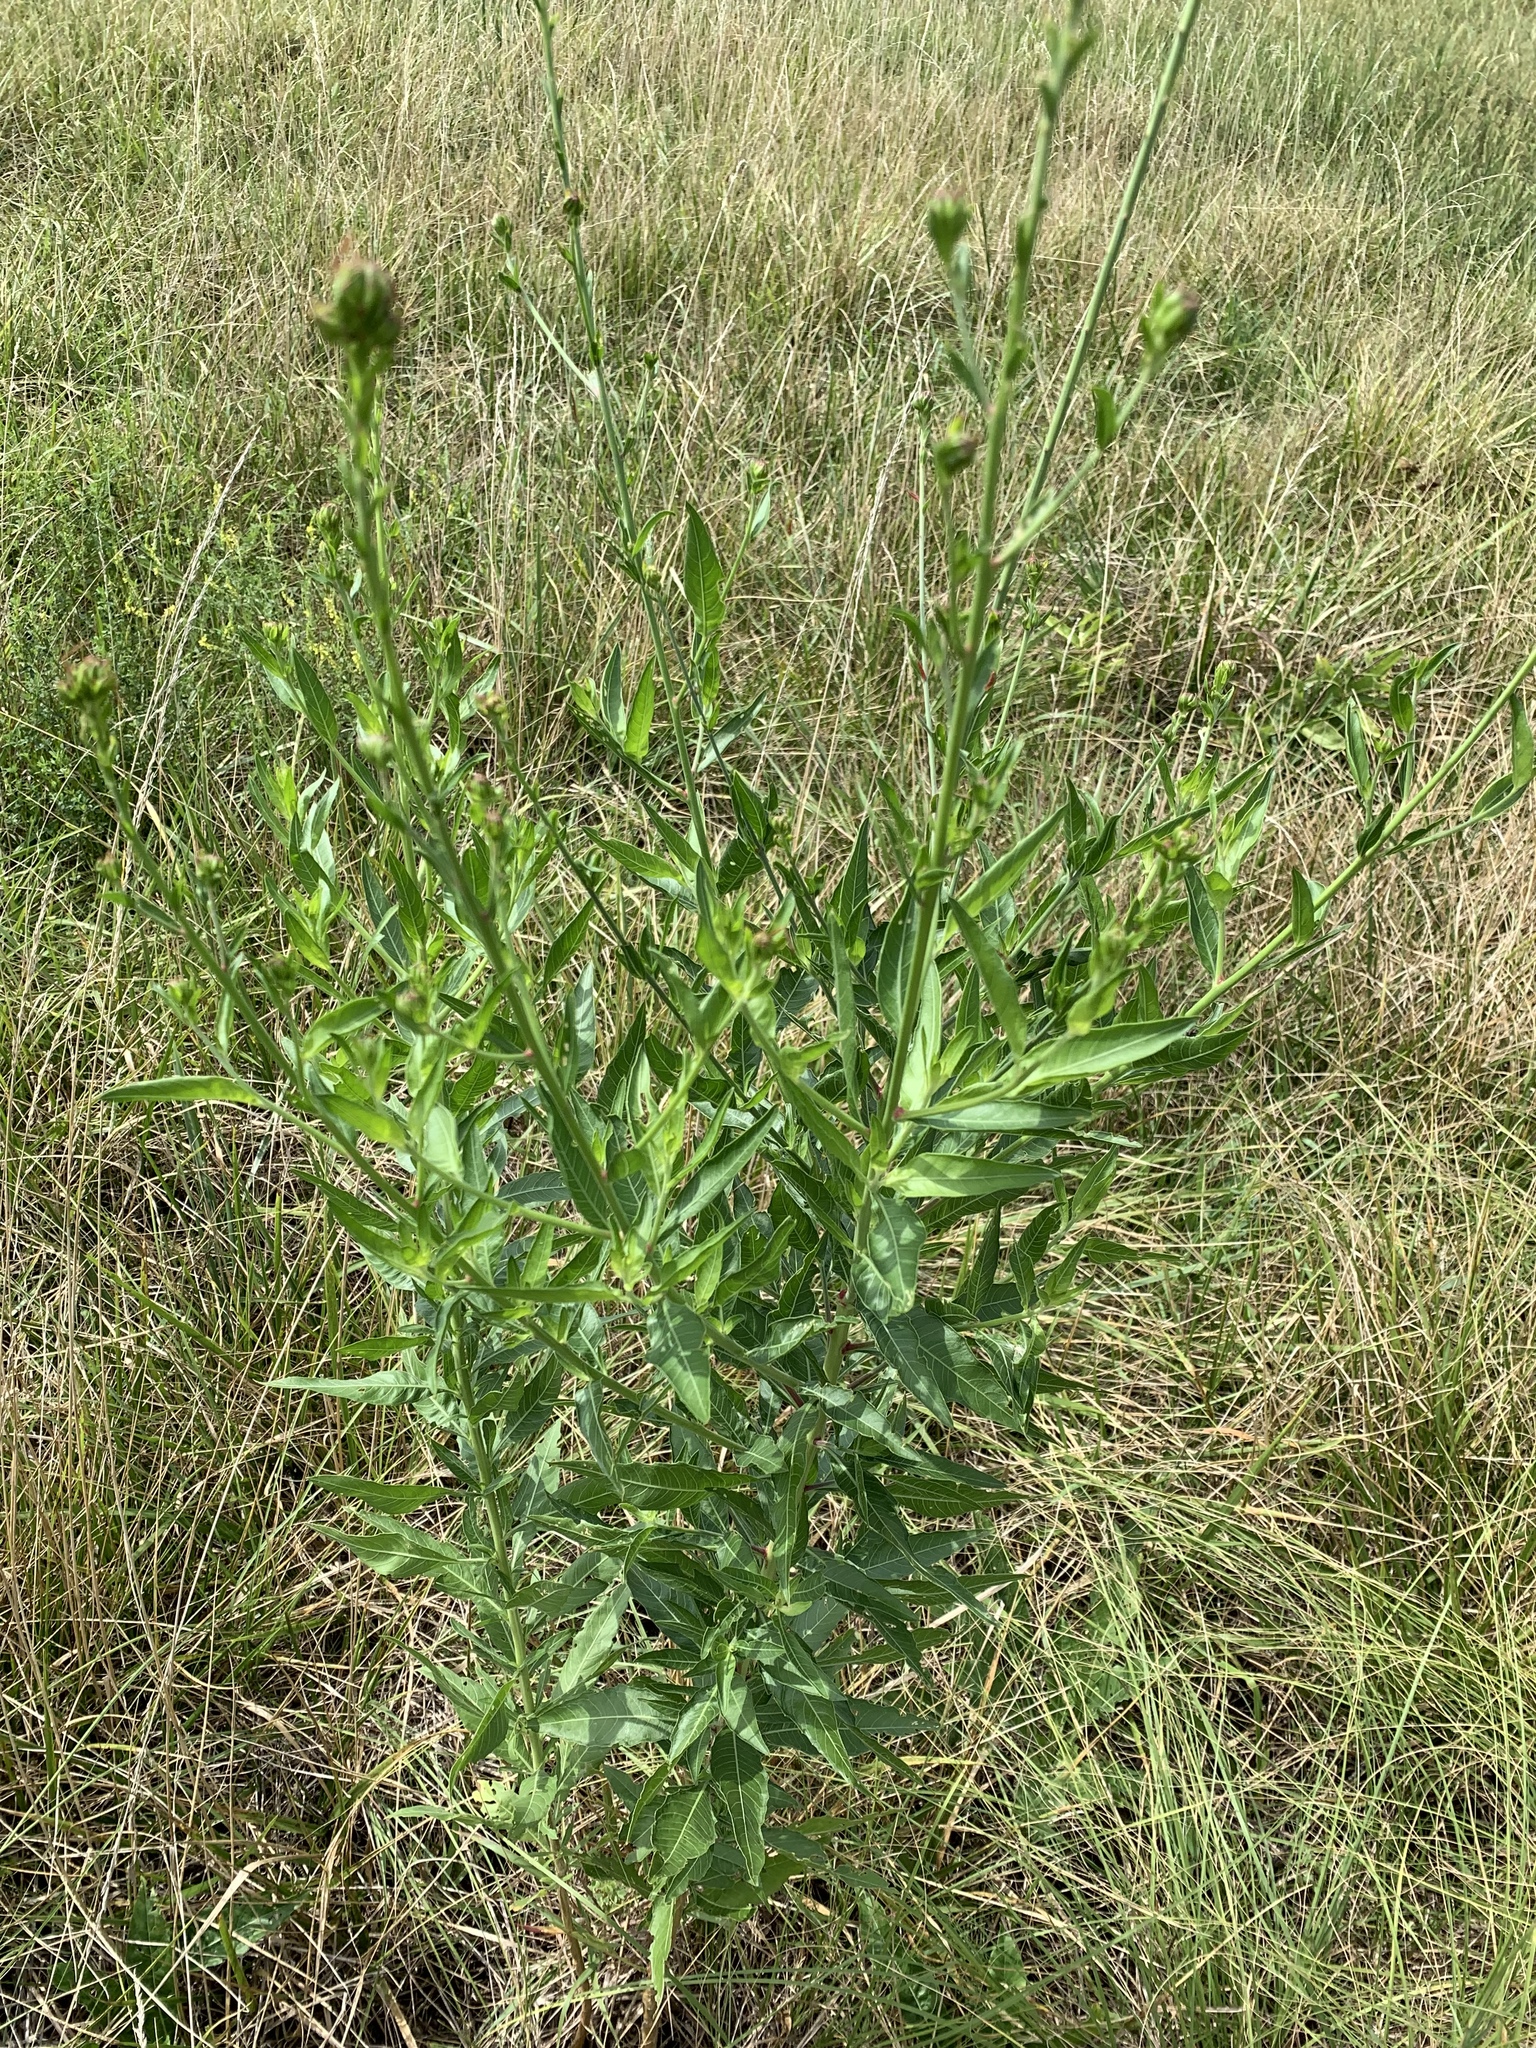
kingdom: Plantae
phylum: Tracheophyta
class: Magnoliopsida
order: Myrtales
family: Onagraceae
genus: Oenothera
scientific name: Oenothera curtiflora
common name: Velvetweed
